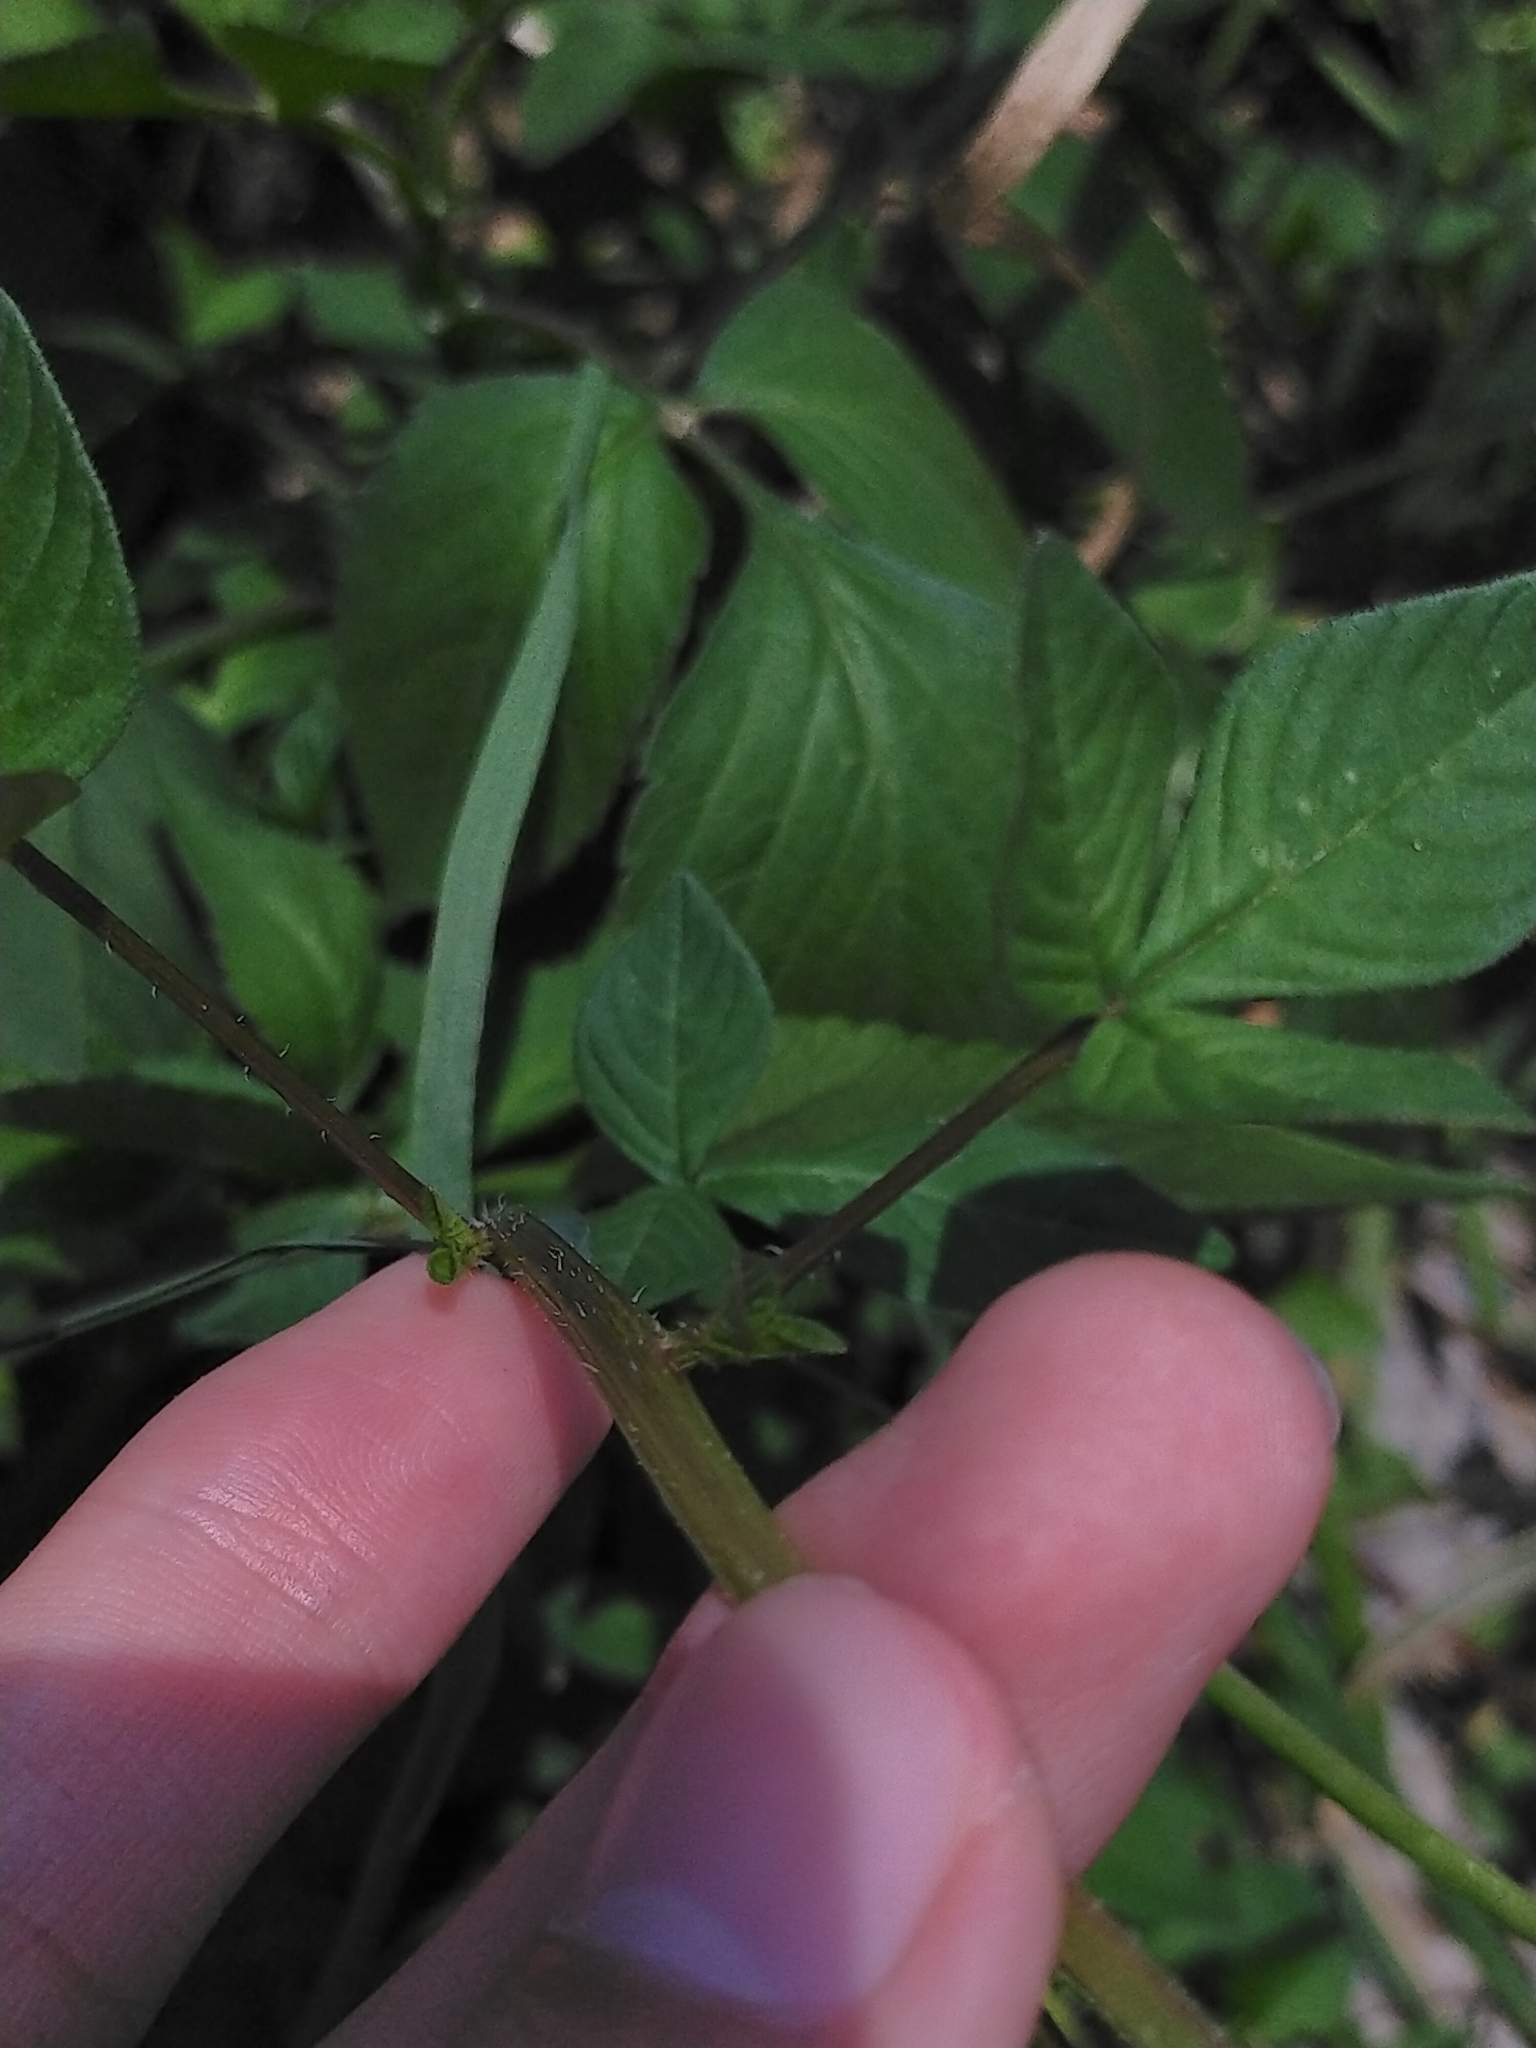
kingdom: Plantae
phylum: Tracheophyta
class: Magnoliopsida
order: Brassicales
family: Cleomaceae
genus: Sieruela
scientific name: Sieruela rutidosperma
